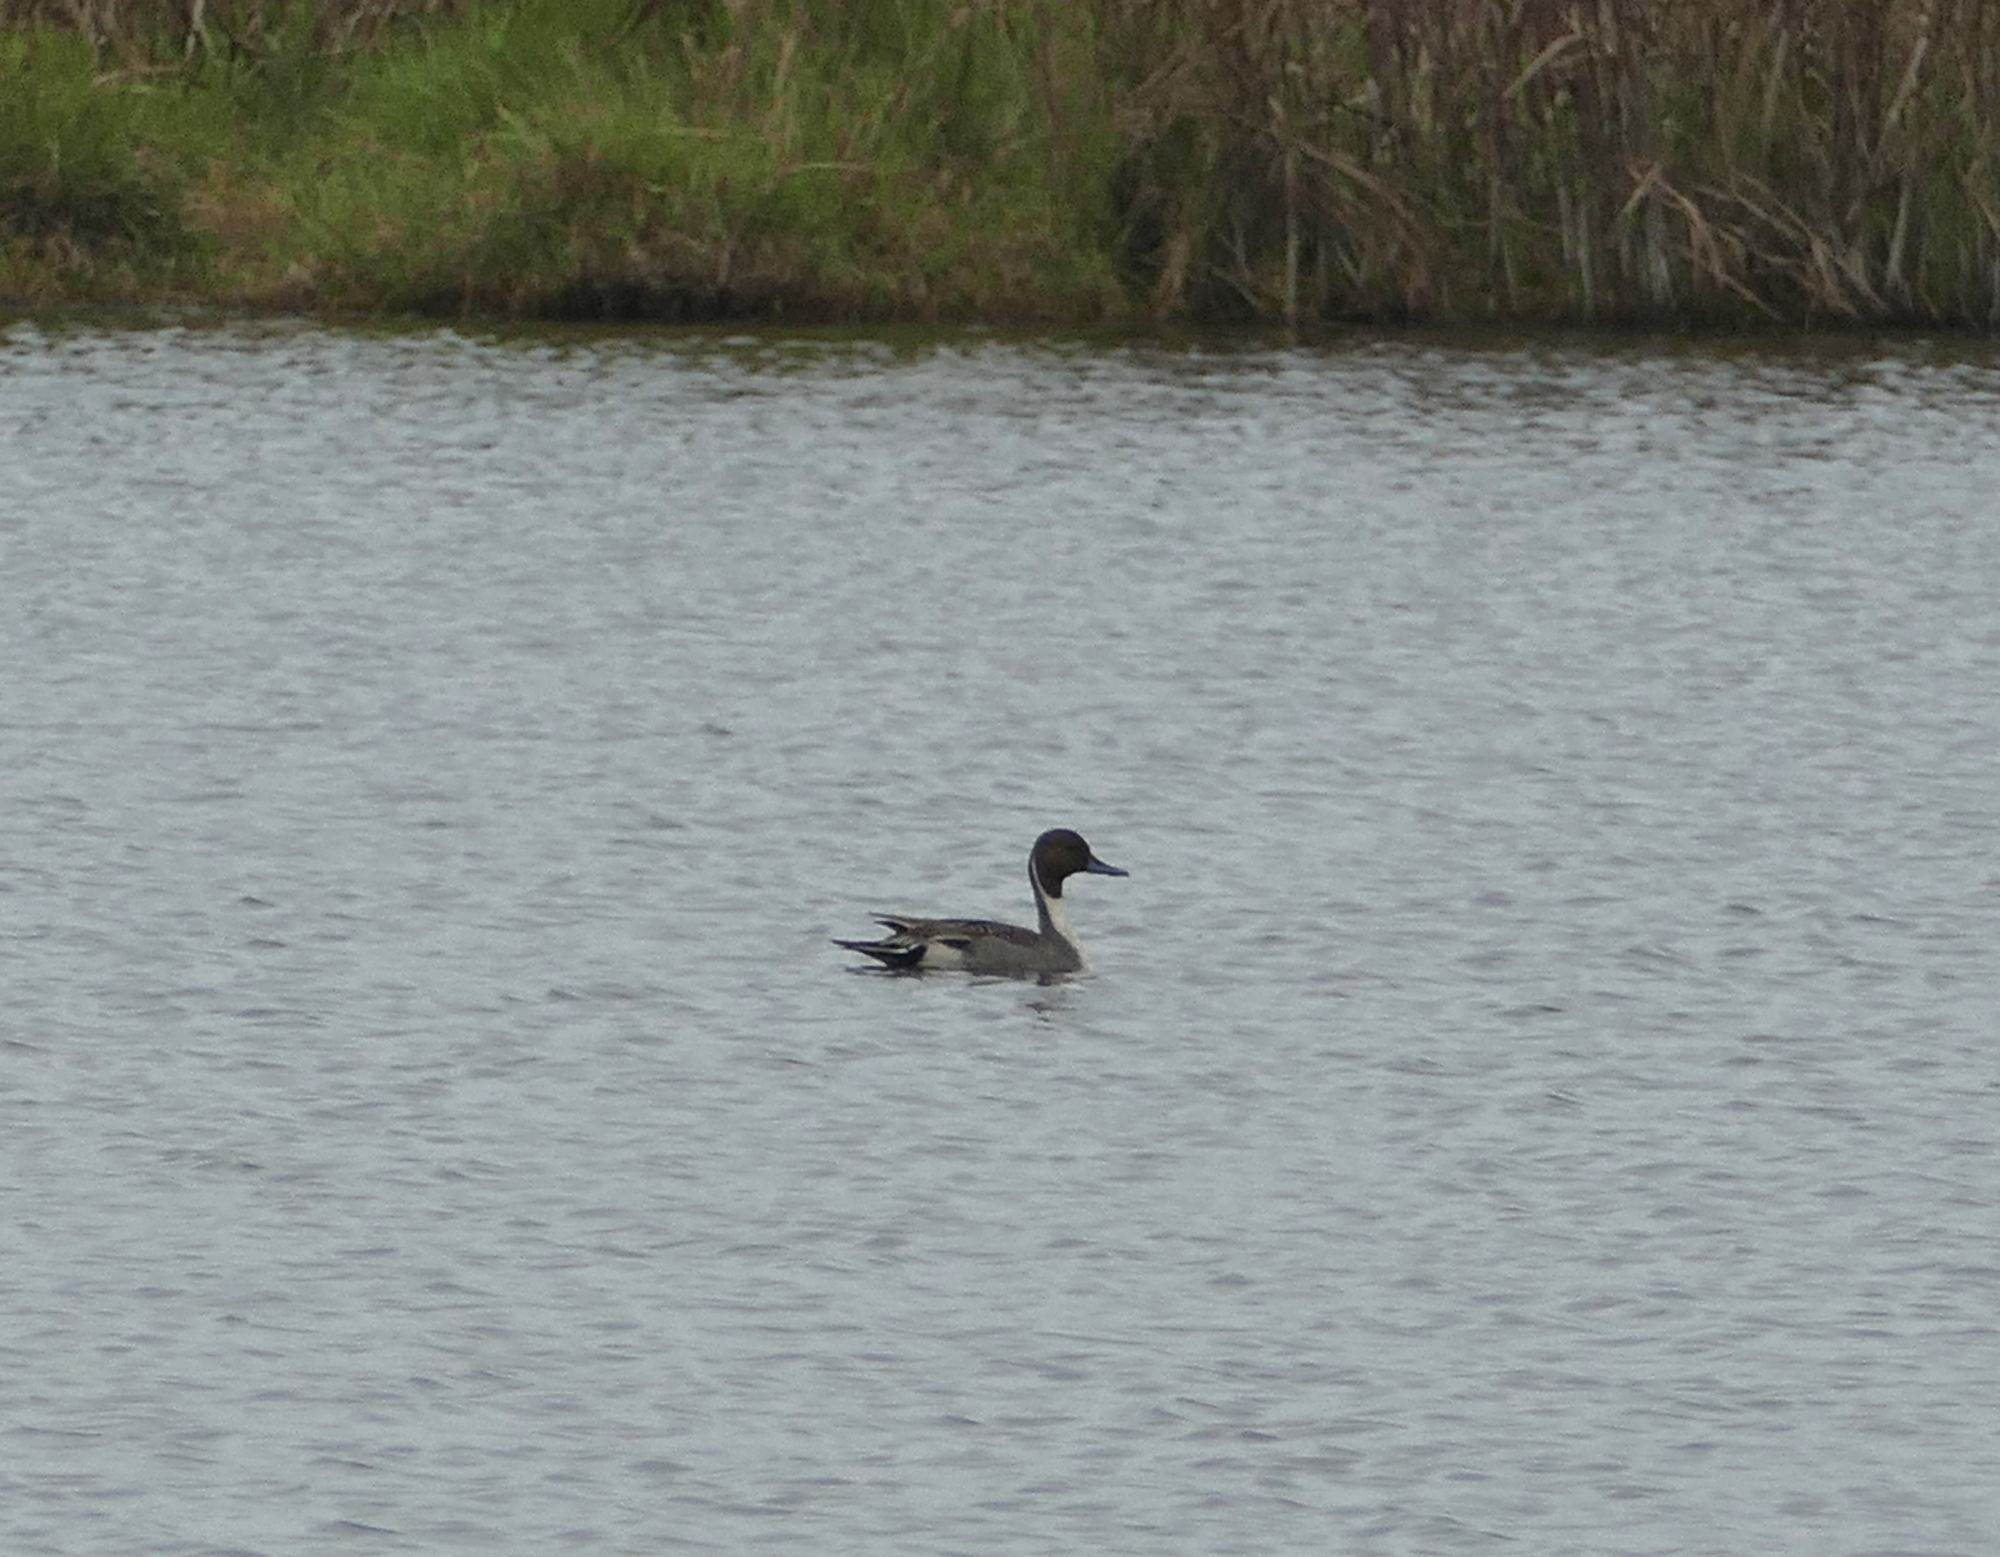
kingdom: Animalia
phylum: Chordata
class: Aves
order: Anseriformes
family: Anatidae
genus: Anas
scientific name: Anas acuta
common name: Northern pintail
